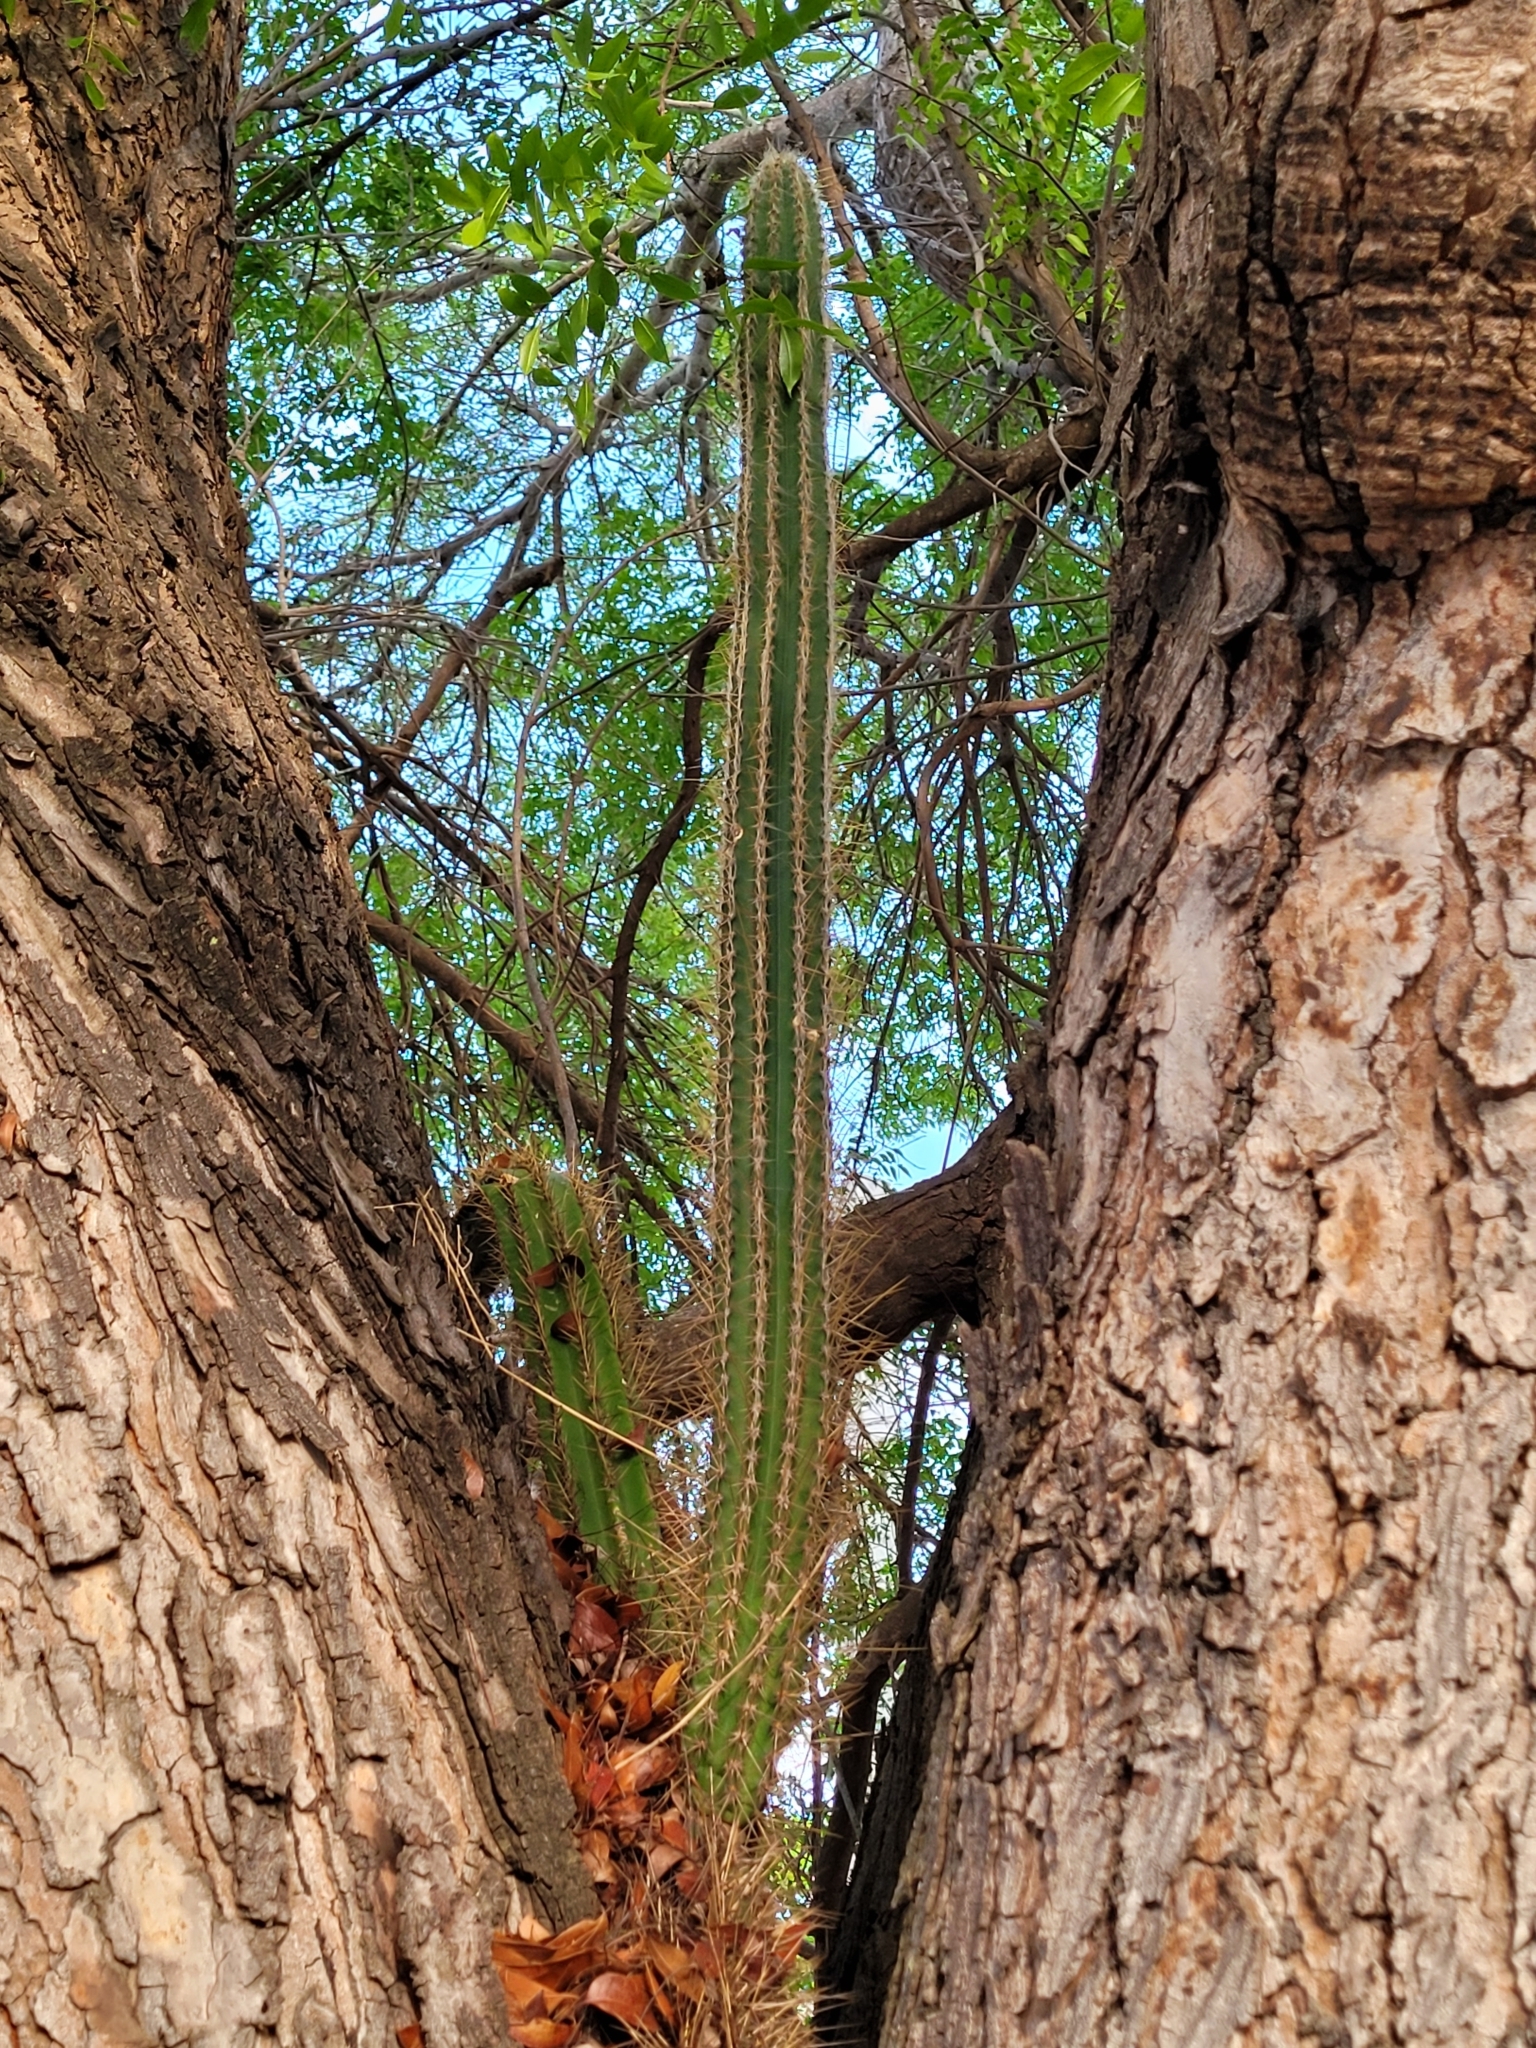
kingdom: Plantae
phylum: Tracheophyta
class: Magnoliopsida
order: Caryophyllales
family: Cactaceae
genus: Pilosocereus
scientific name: Pilosocereus armatus
